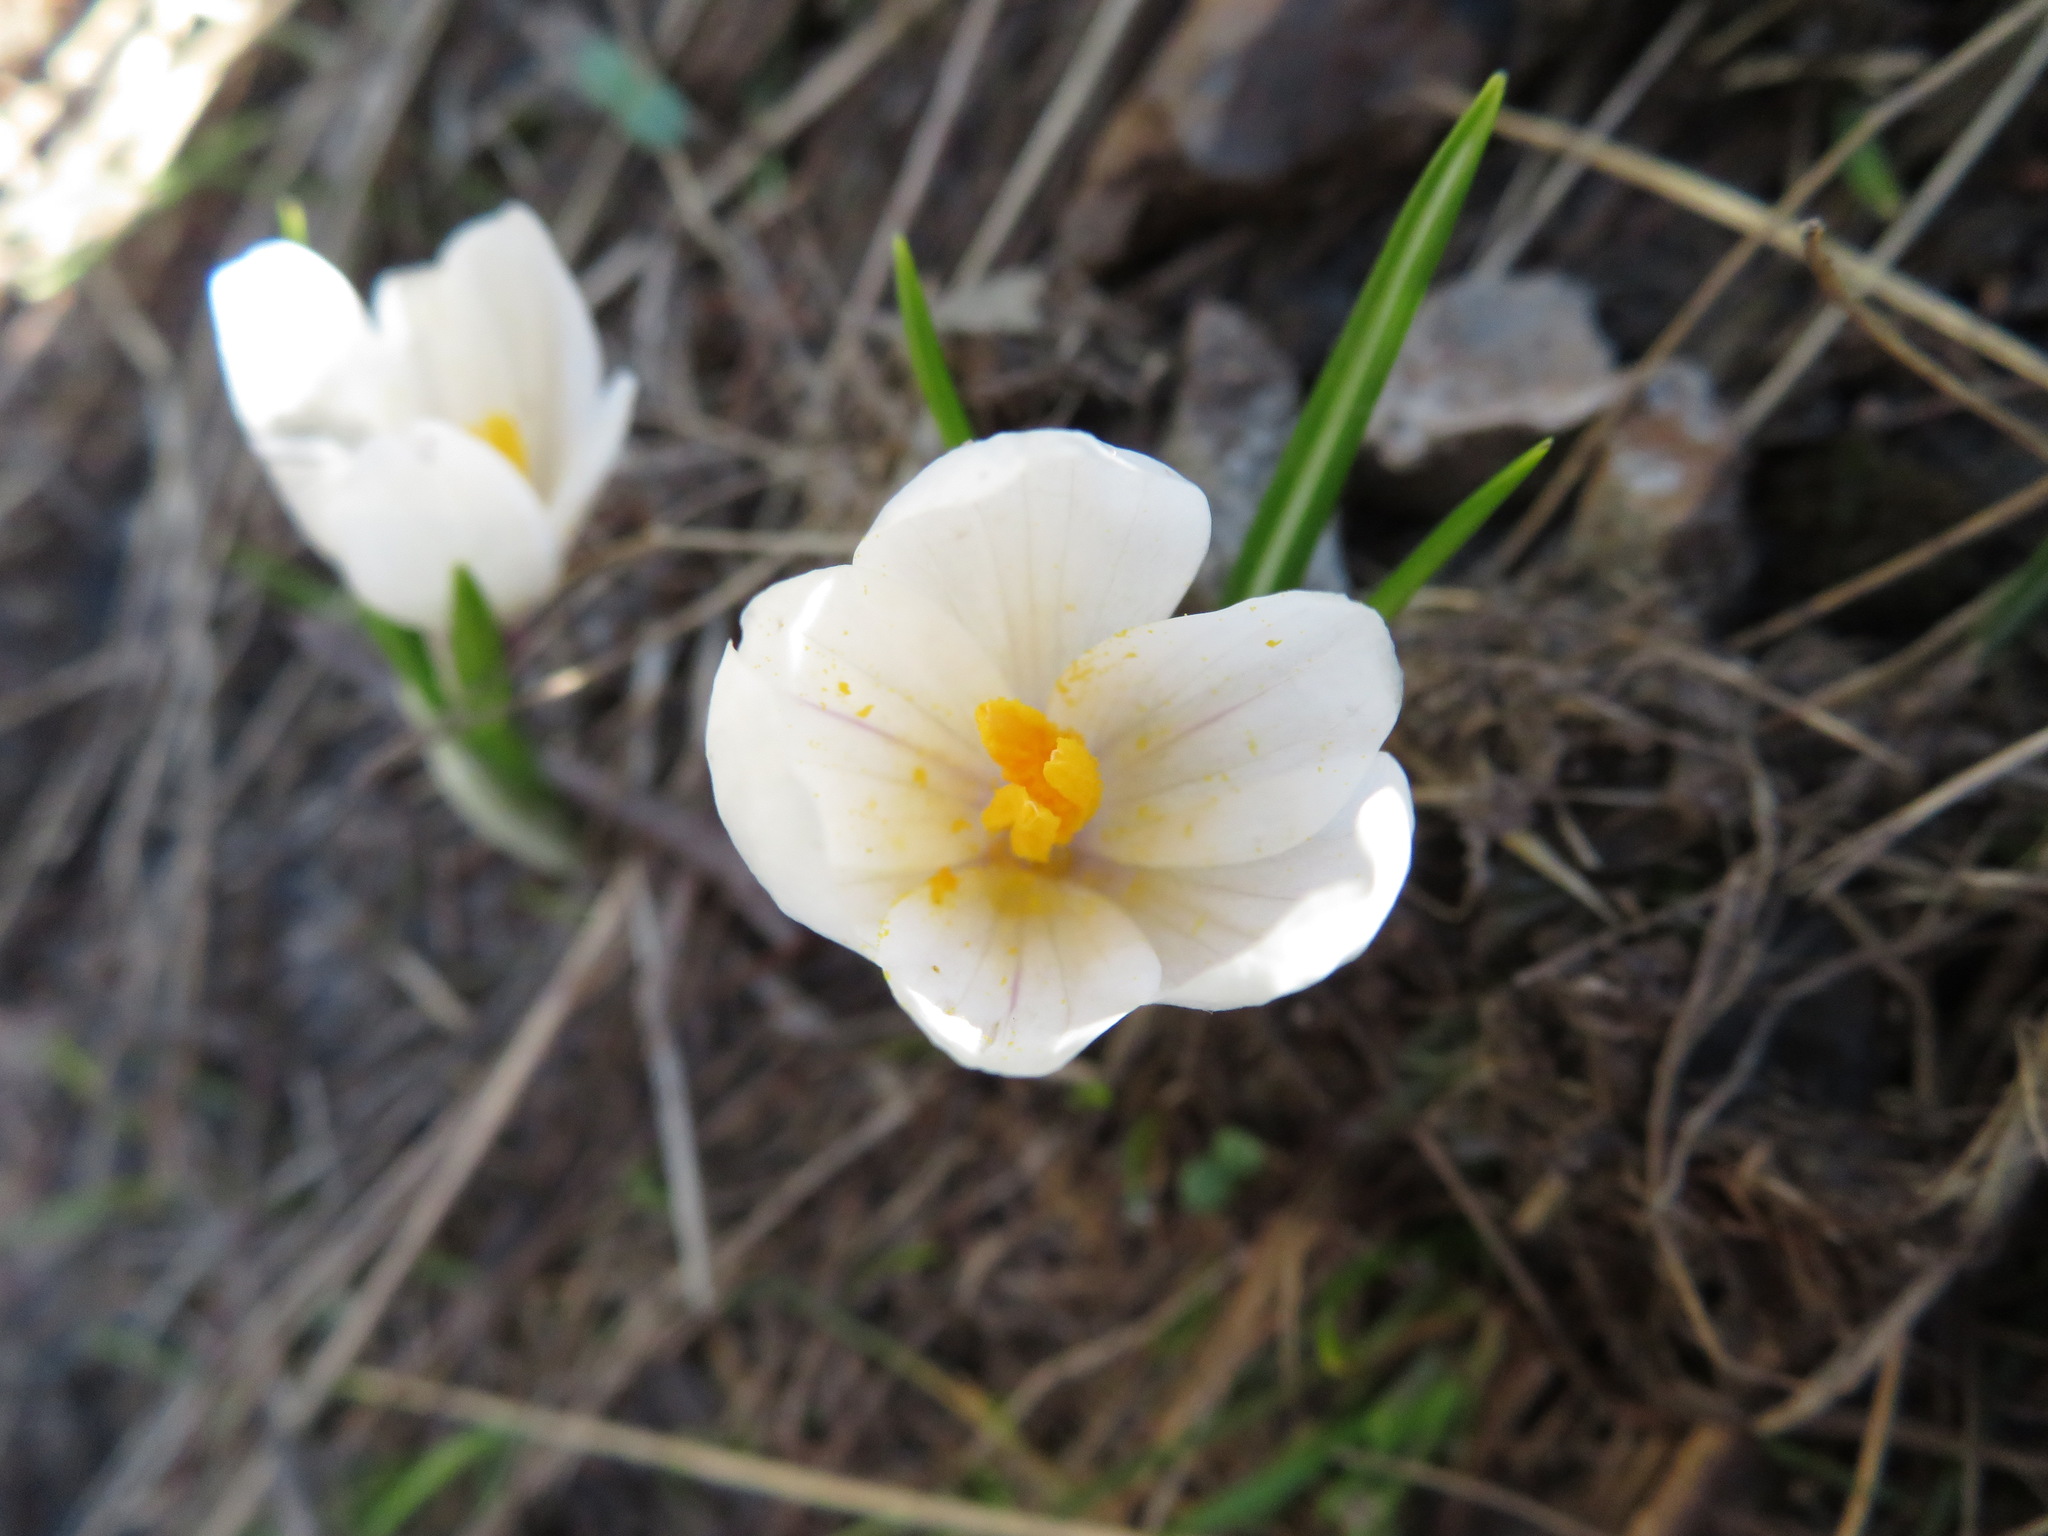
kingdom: Plantae
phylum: Tracheophyta
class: Liliopsida
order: Asparagales
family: Iridaceae
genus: Crocus
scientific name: Crocus vernus
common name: Spring crocus
